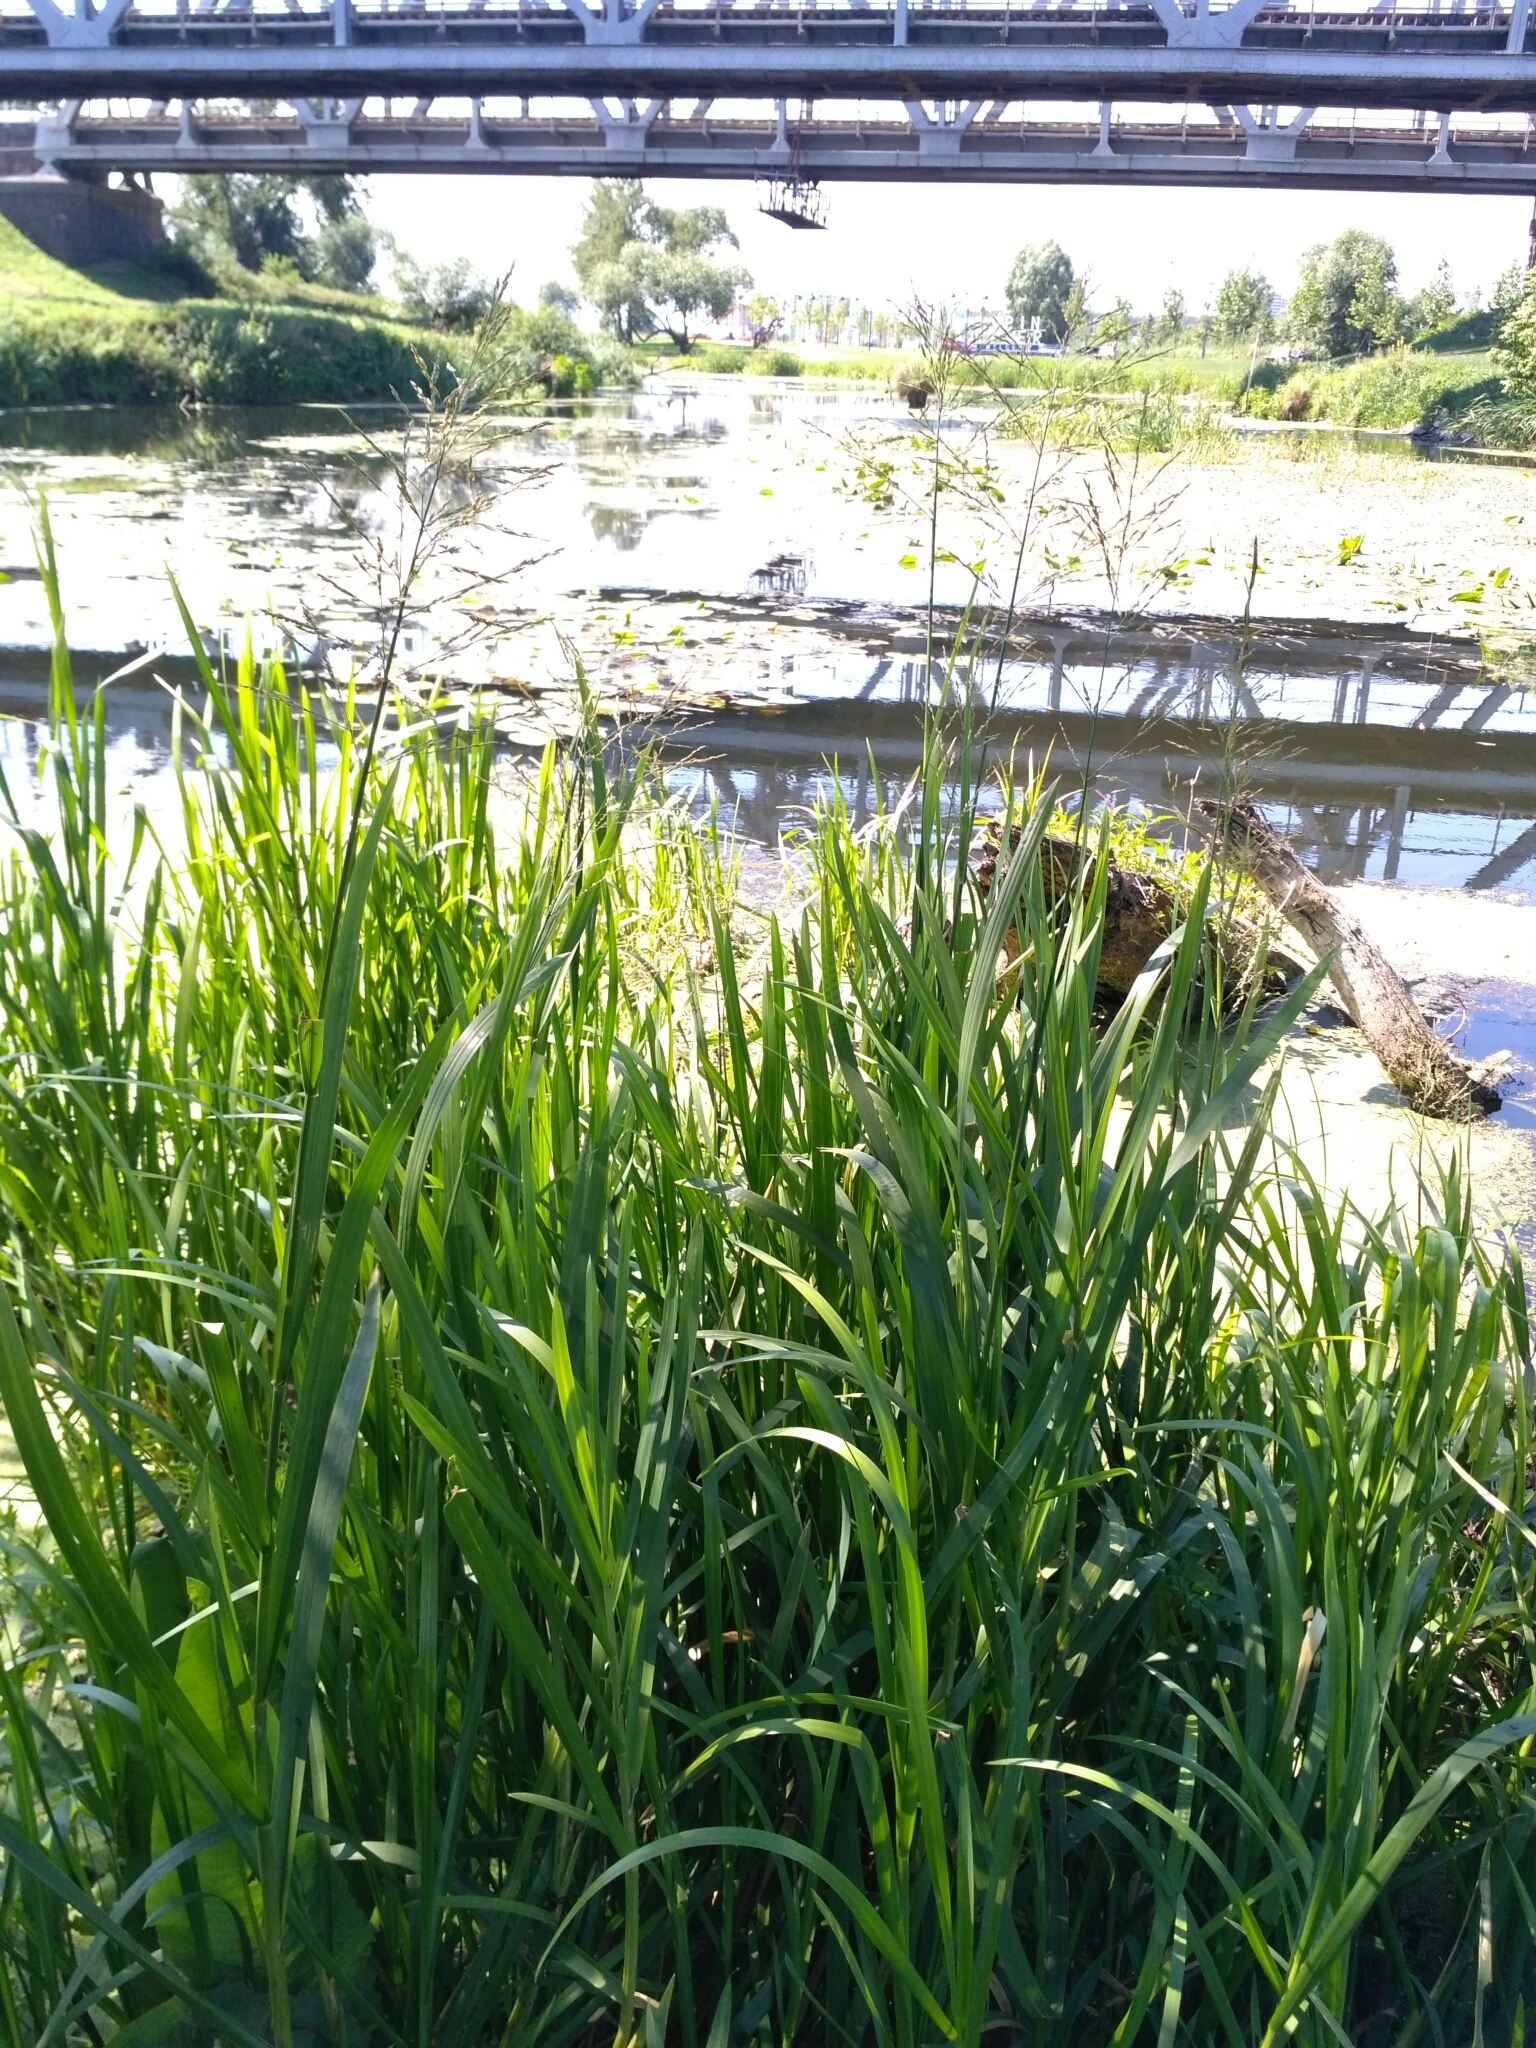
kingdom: Plantae
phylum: Tracheophyta
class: Liliopsida
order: Poales
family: Poaceae
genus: Glyceria
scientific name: Glyceria maxima
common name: Reed mannagrass
